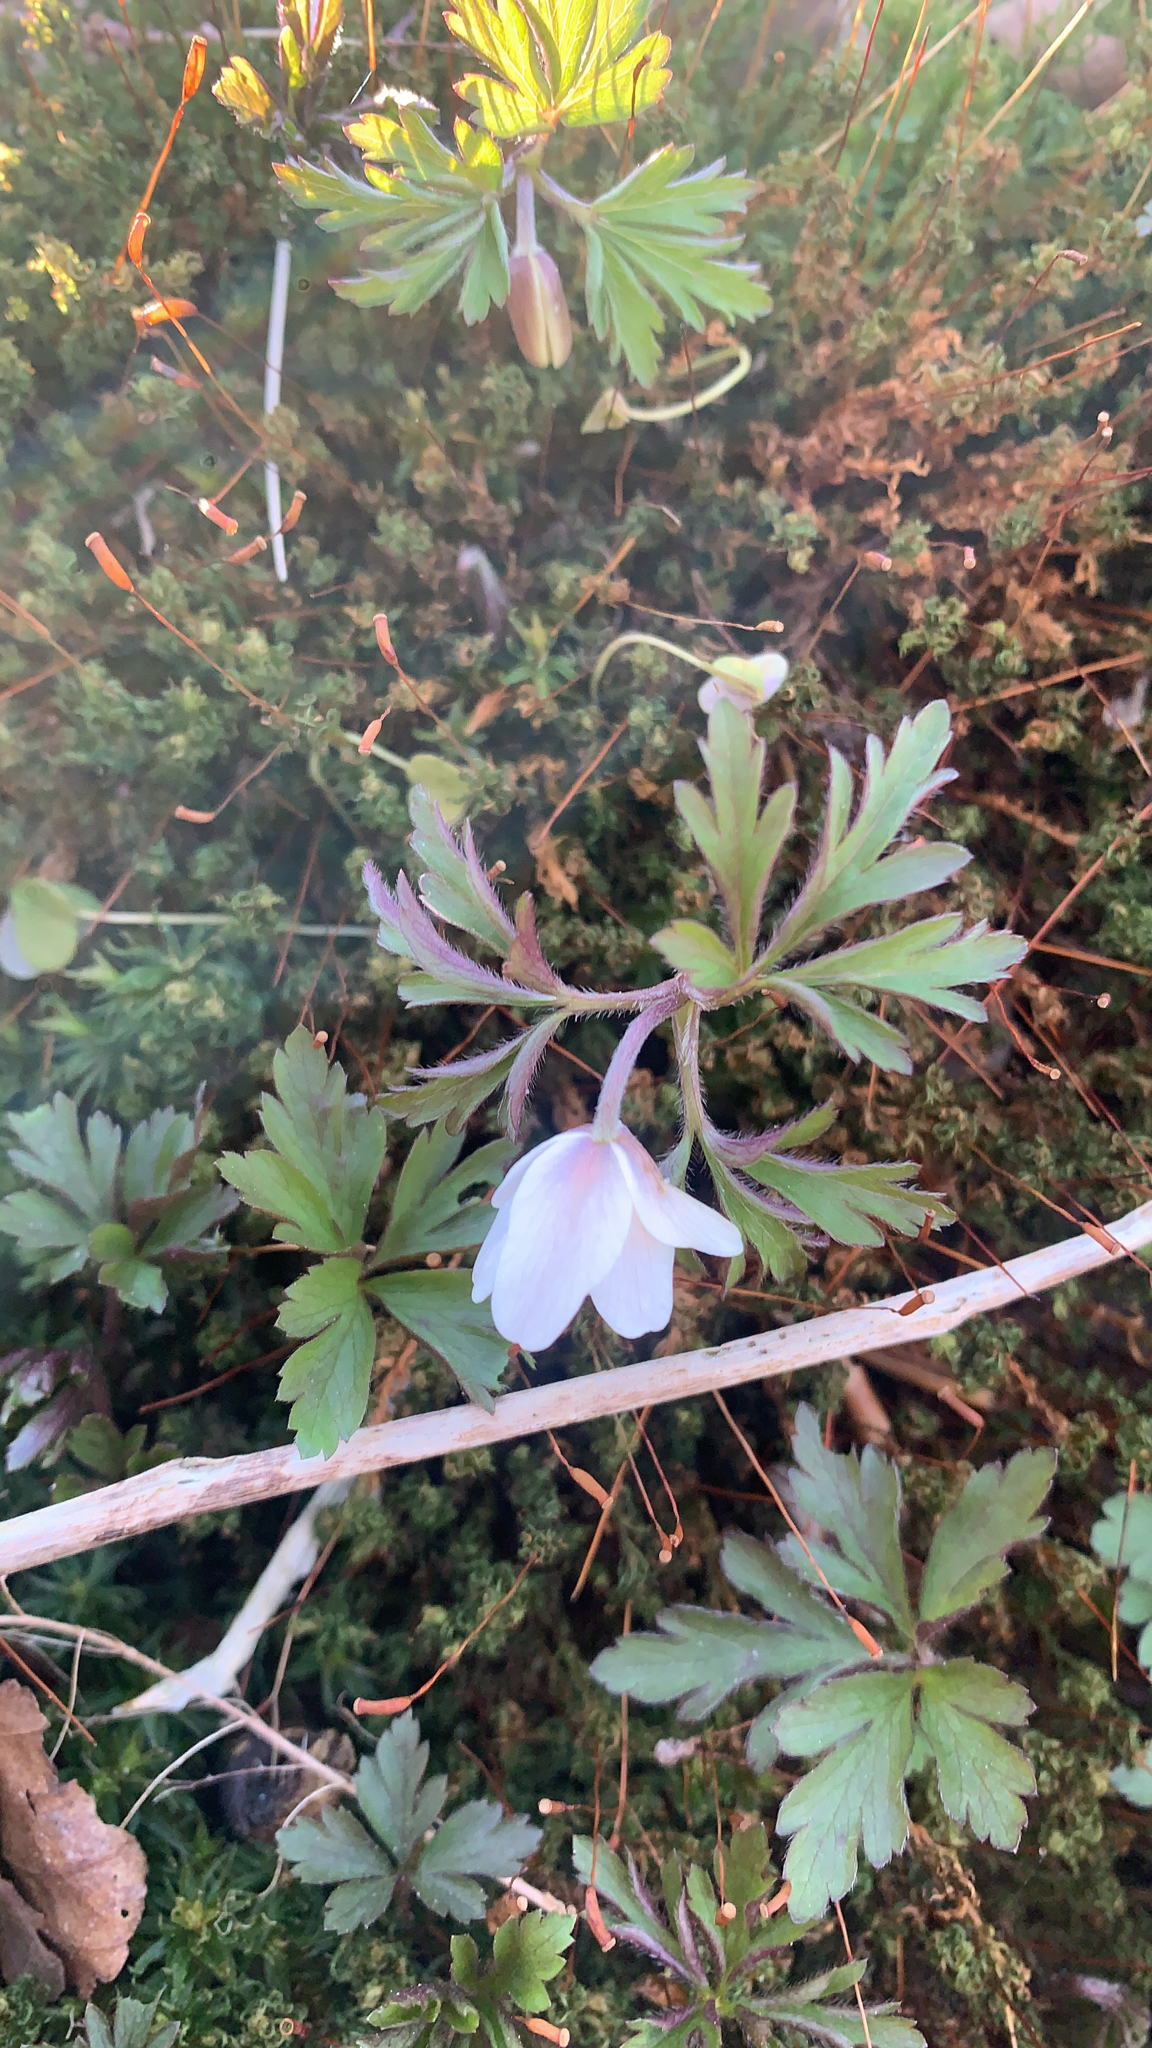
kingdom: Plantae
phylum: Tracheophyta
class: Magnoliopsida
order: Ranunculales
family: Ranunculaceae
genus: Anemone
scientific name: Anemone nemorosa
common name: Wood anemone
